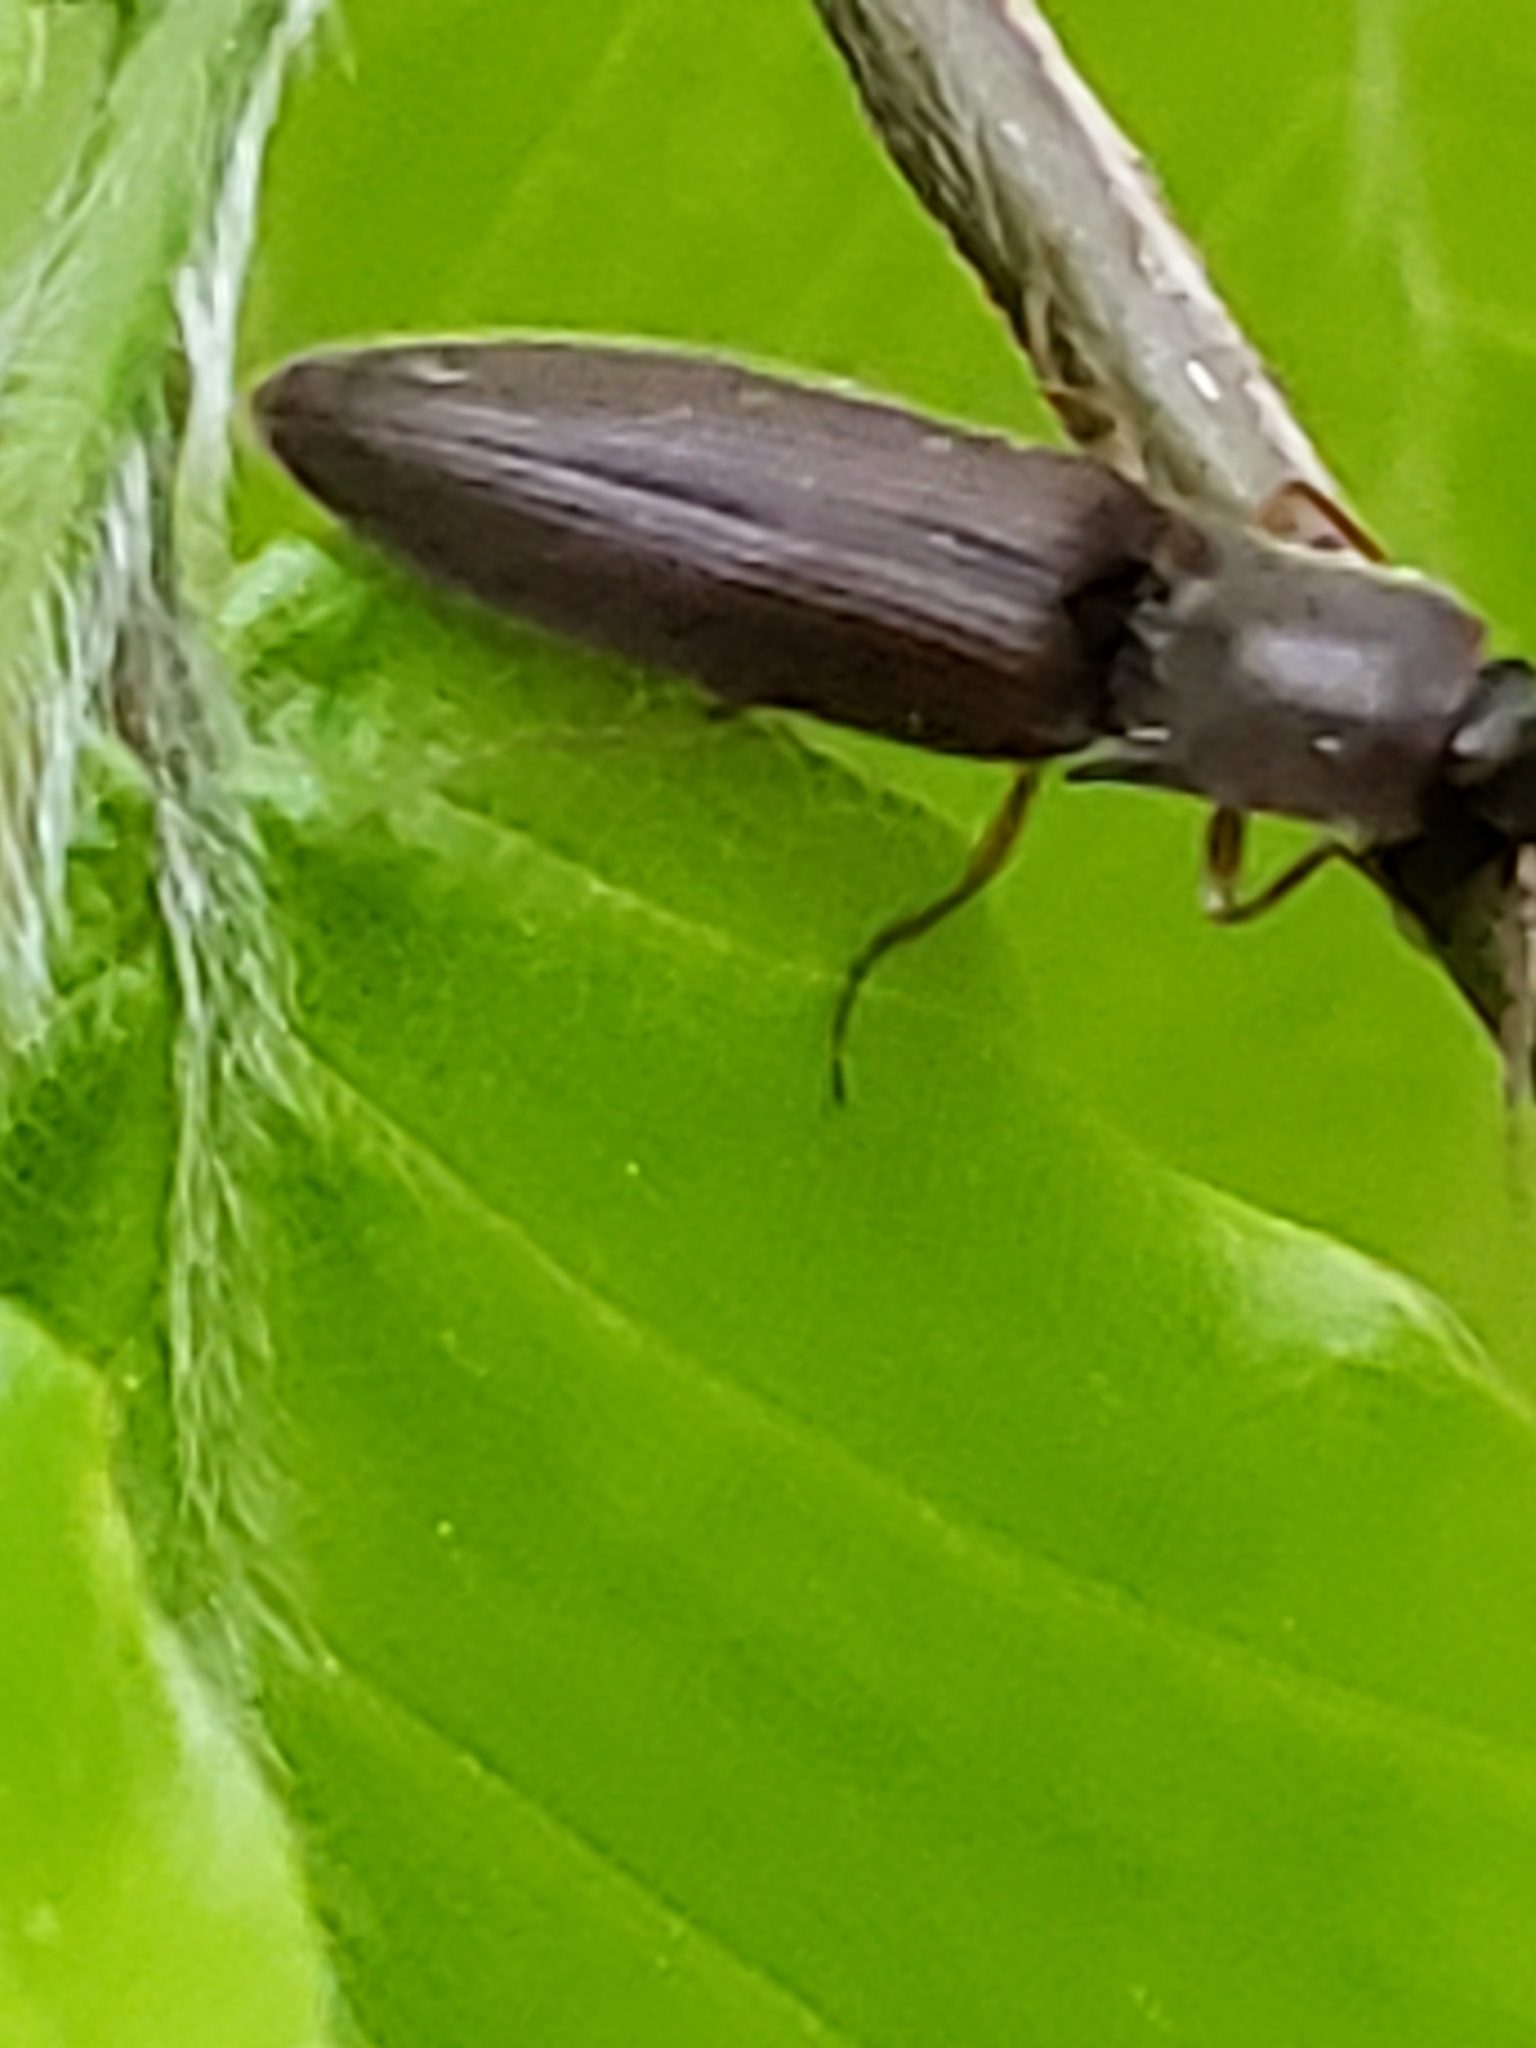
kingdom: Animalia
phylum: Arthropoda
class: Insecta
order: Coleoptera
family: Elateridae
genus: Agriotes
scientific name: Agriotes oblongicollis
